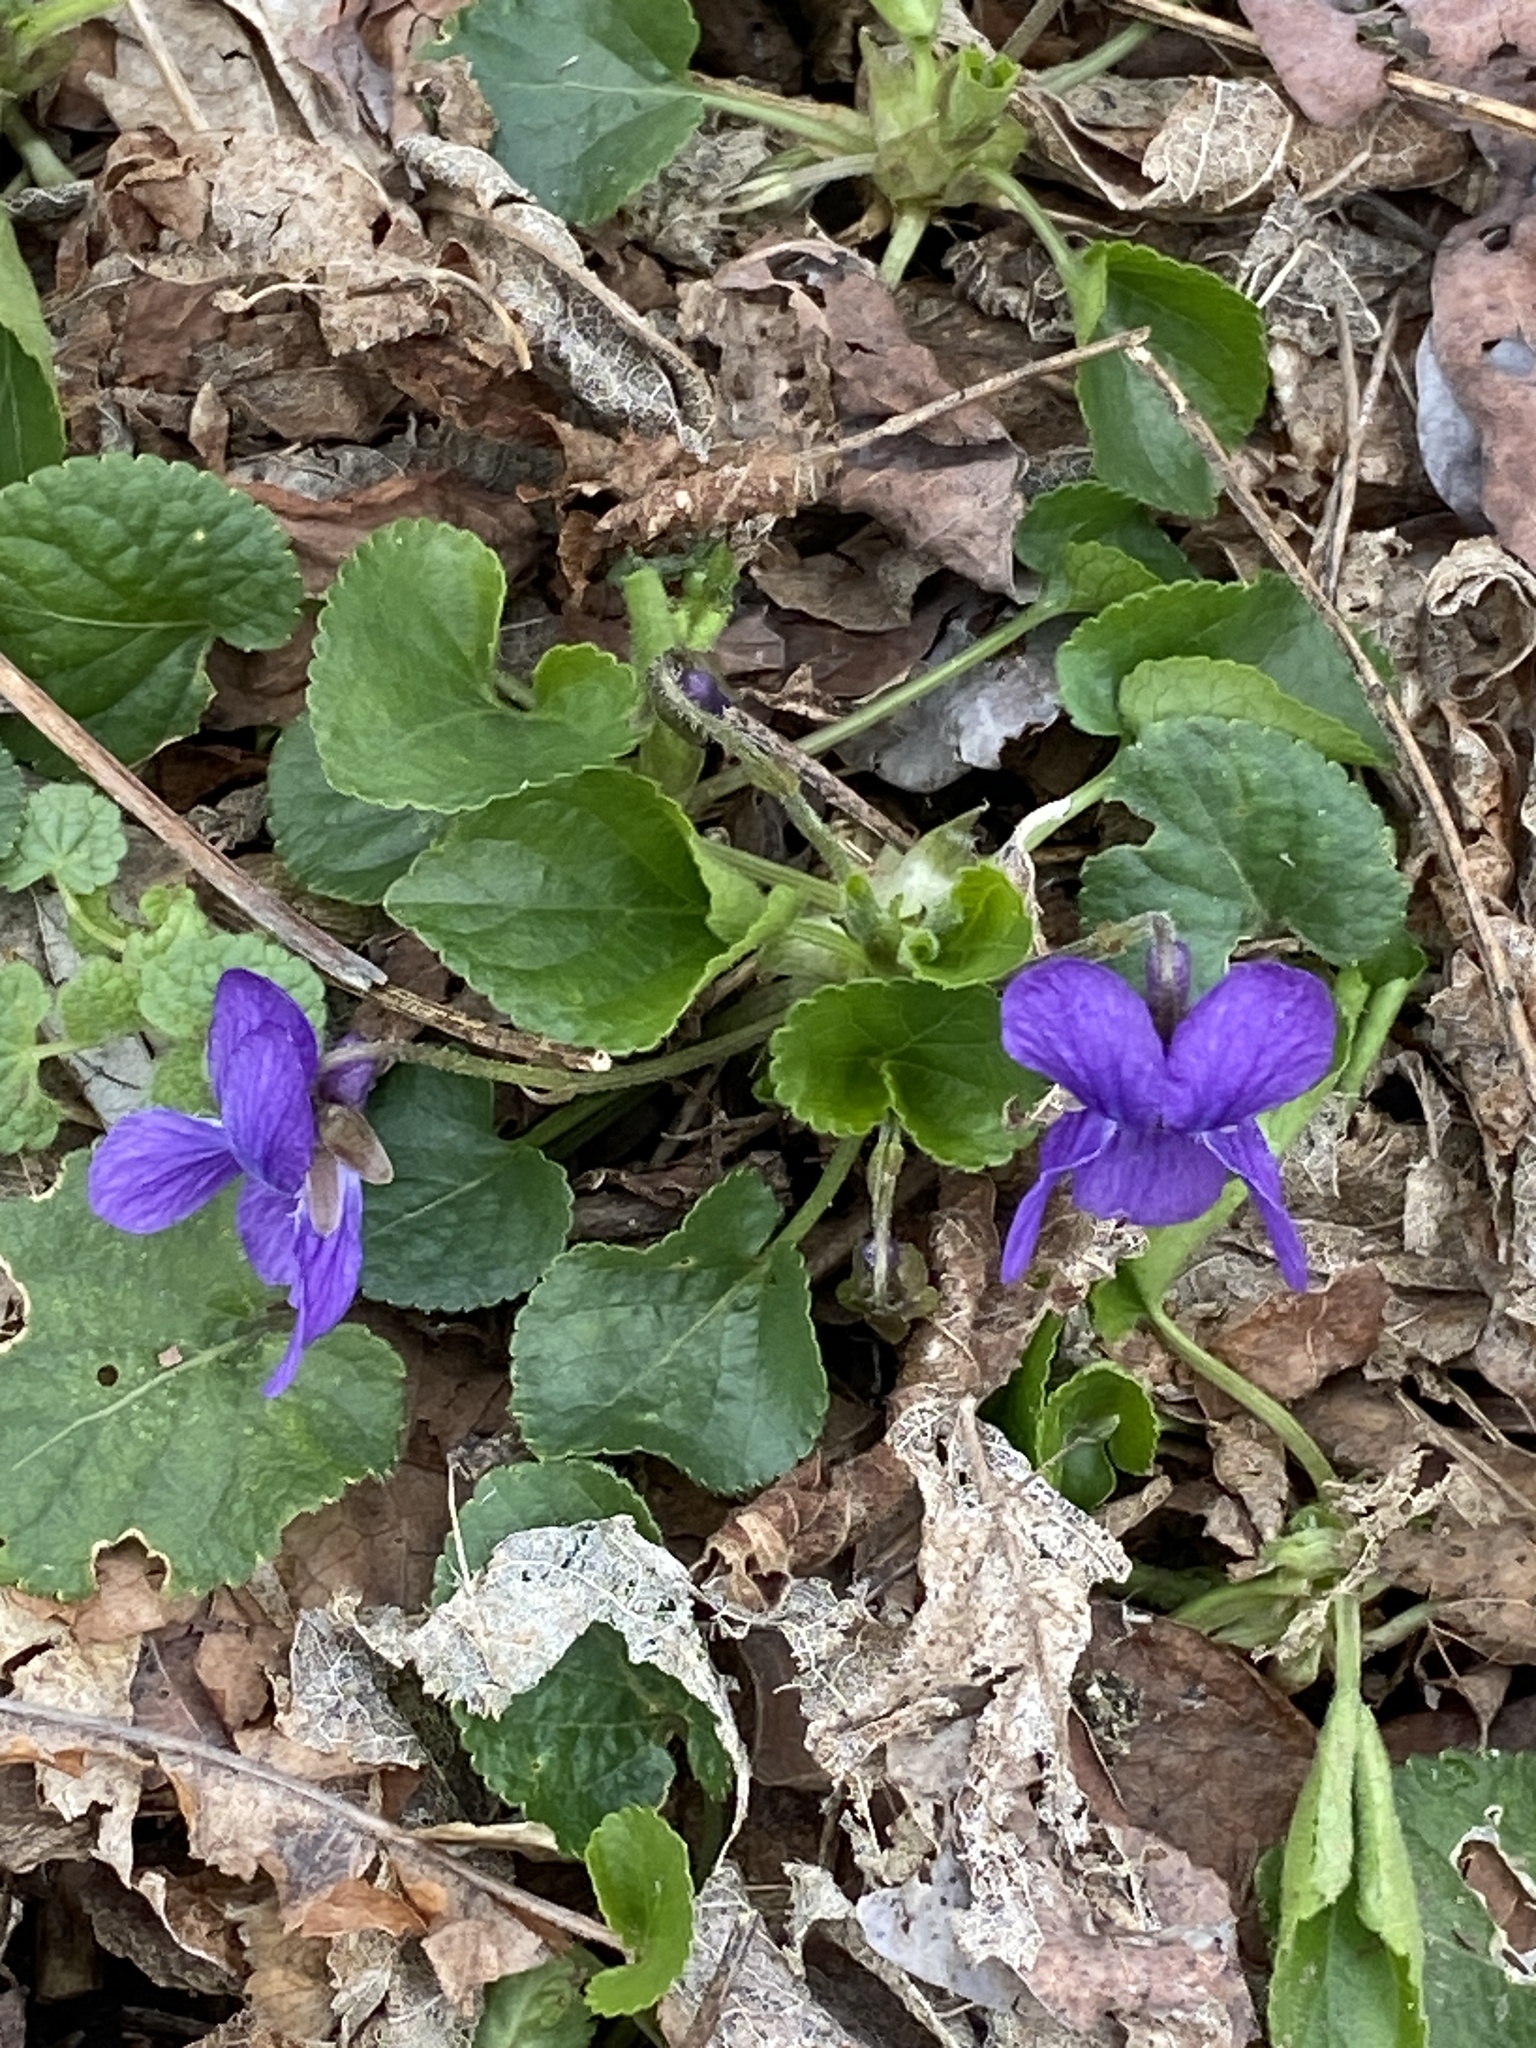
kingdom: Plantae
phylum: Tracheophyta
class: Magnoliopsida
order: Malpighiales
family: Violaceae
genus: Viola
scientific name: Viola odorata
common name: Sweet violet
